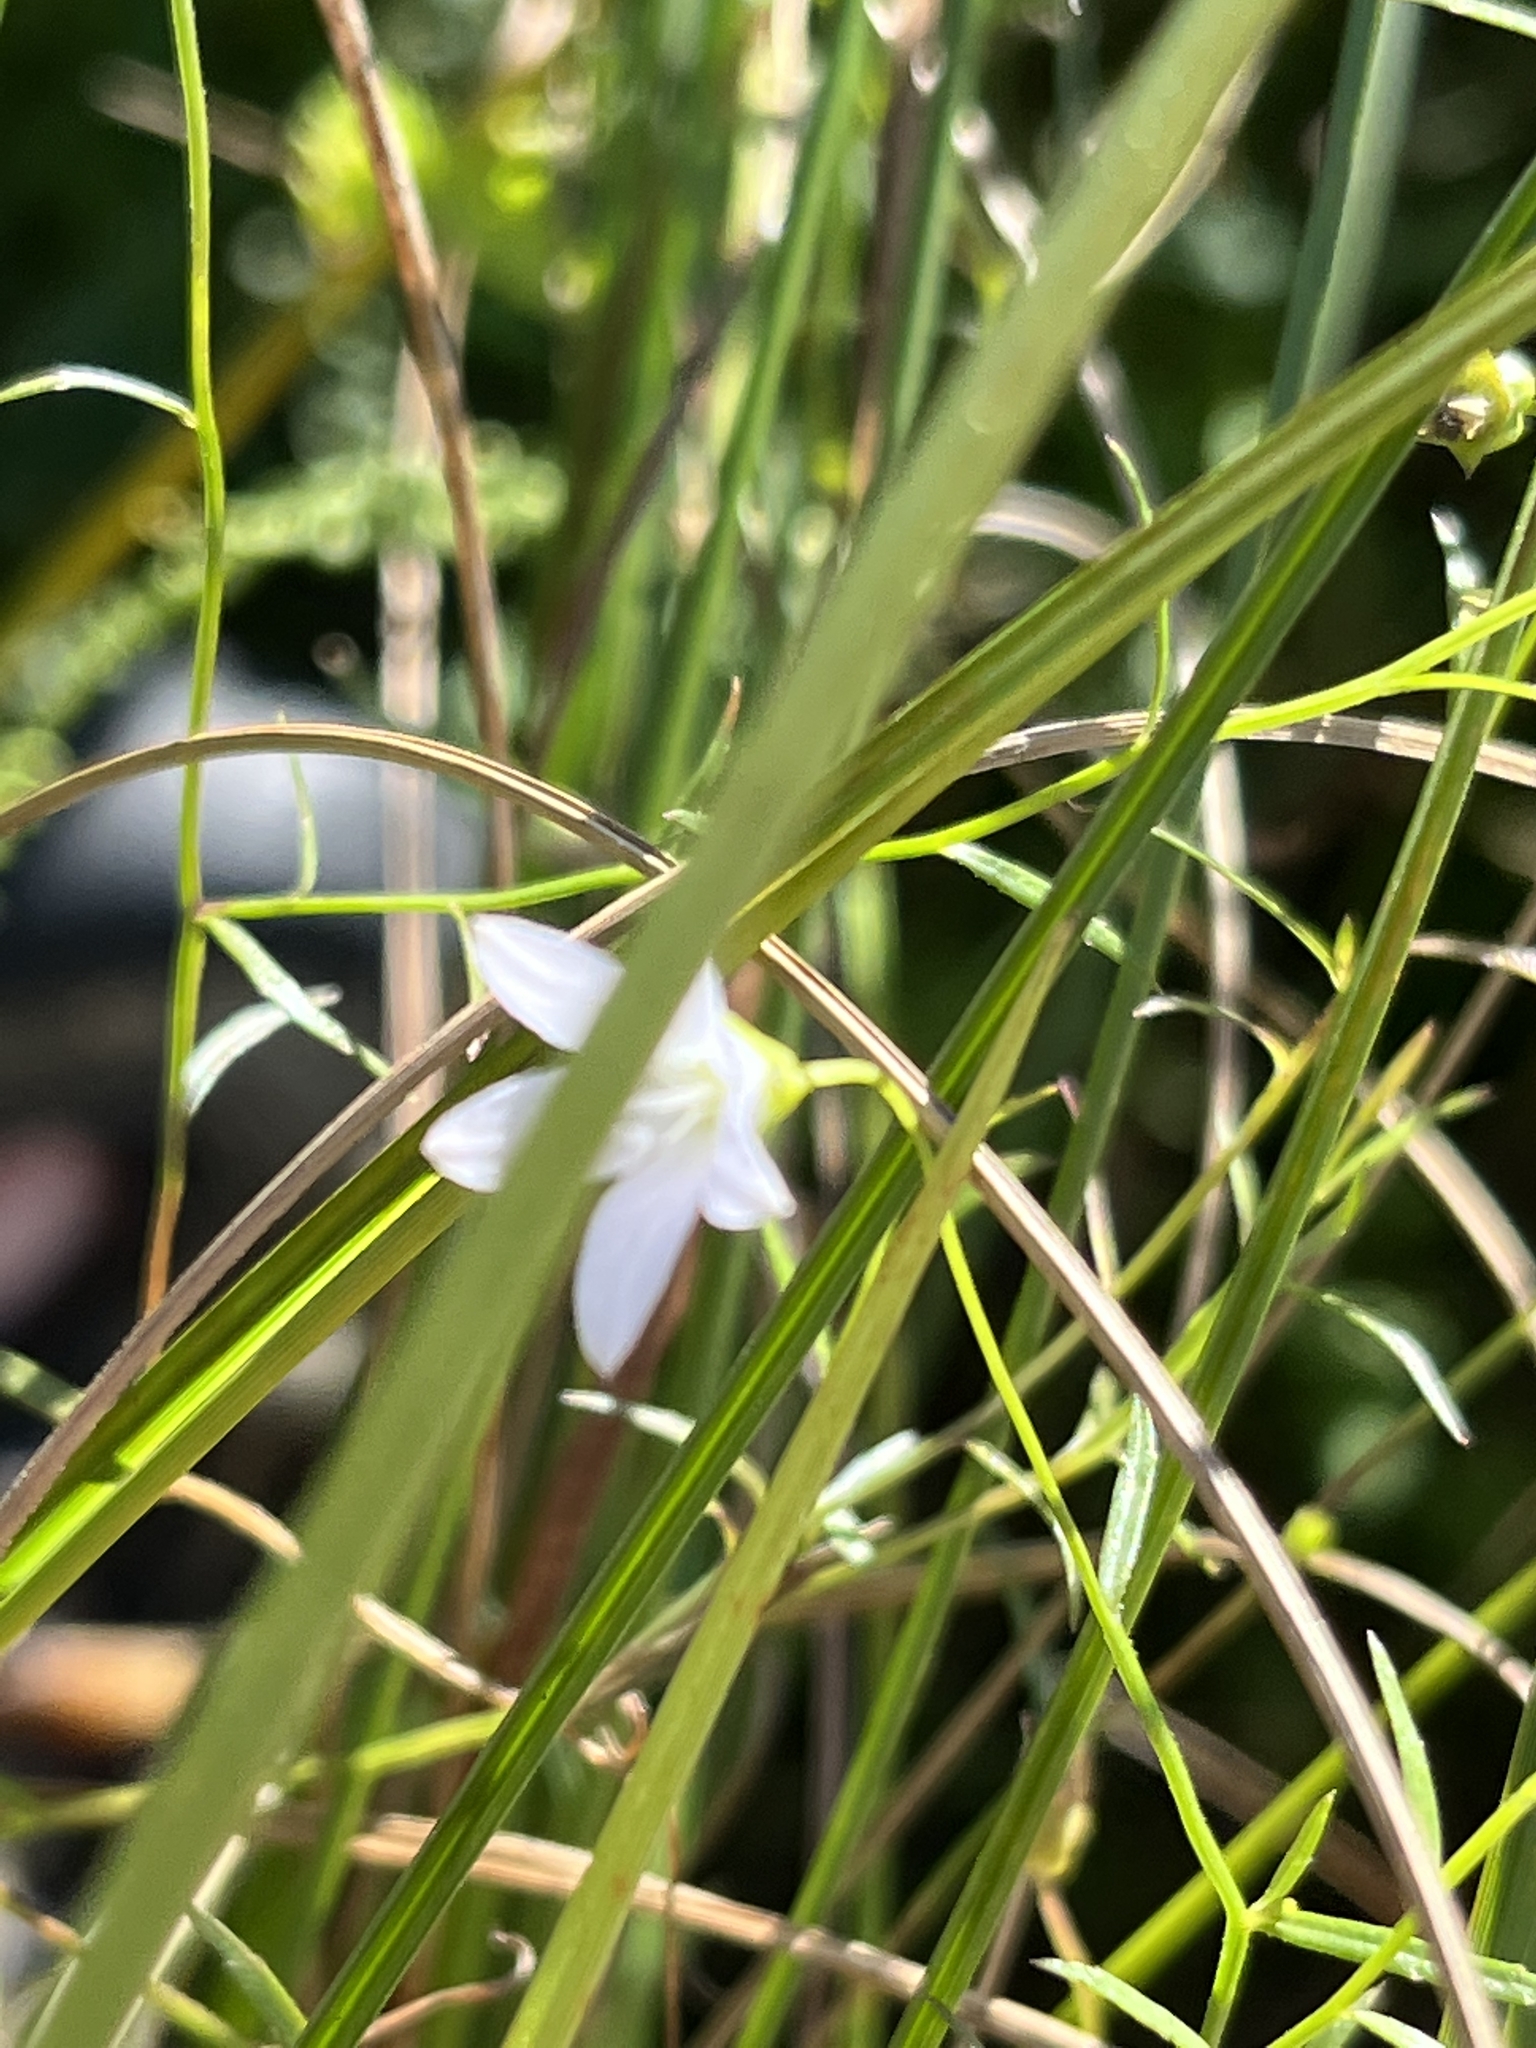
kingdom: Plantae
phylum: Tracheophyta
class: Magnoliopsida
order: Asterales
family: Campanulaceae
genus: Palustricodon
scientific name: Palustricodon aparinoides
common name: Bedstraw bellflower
